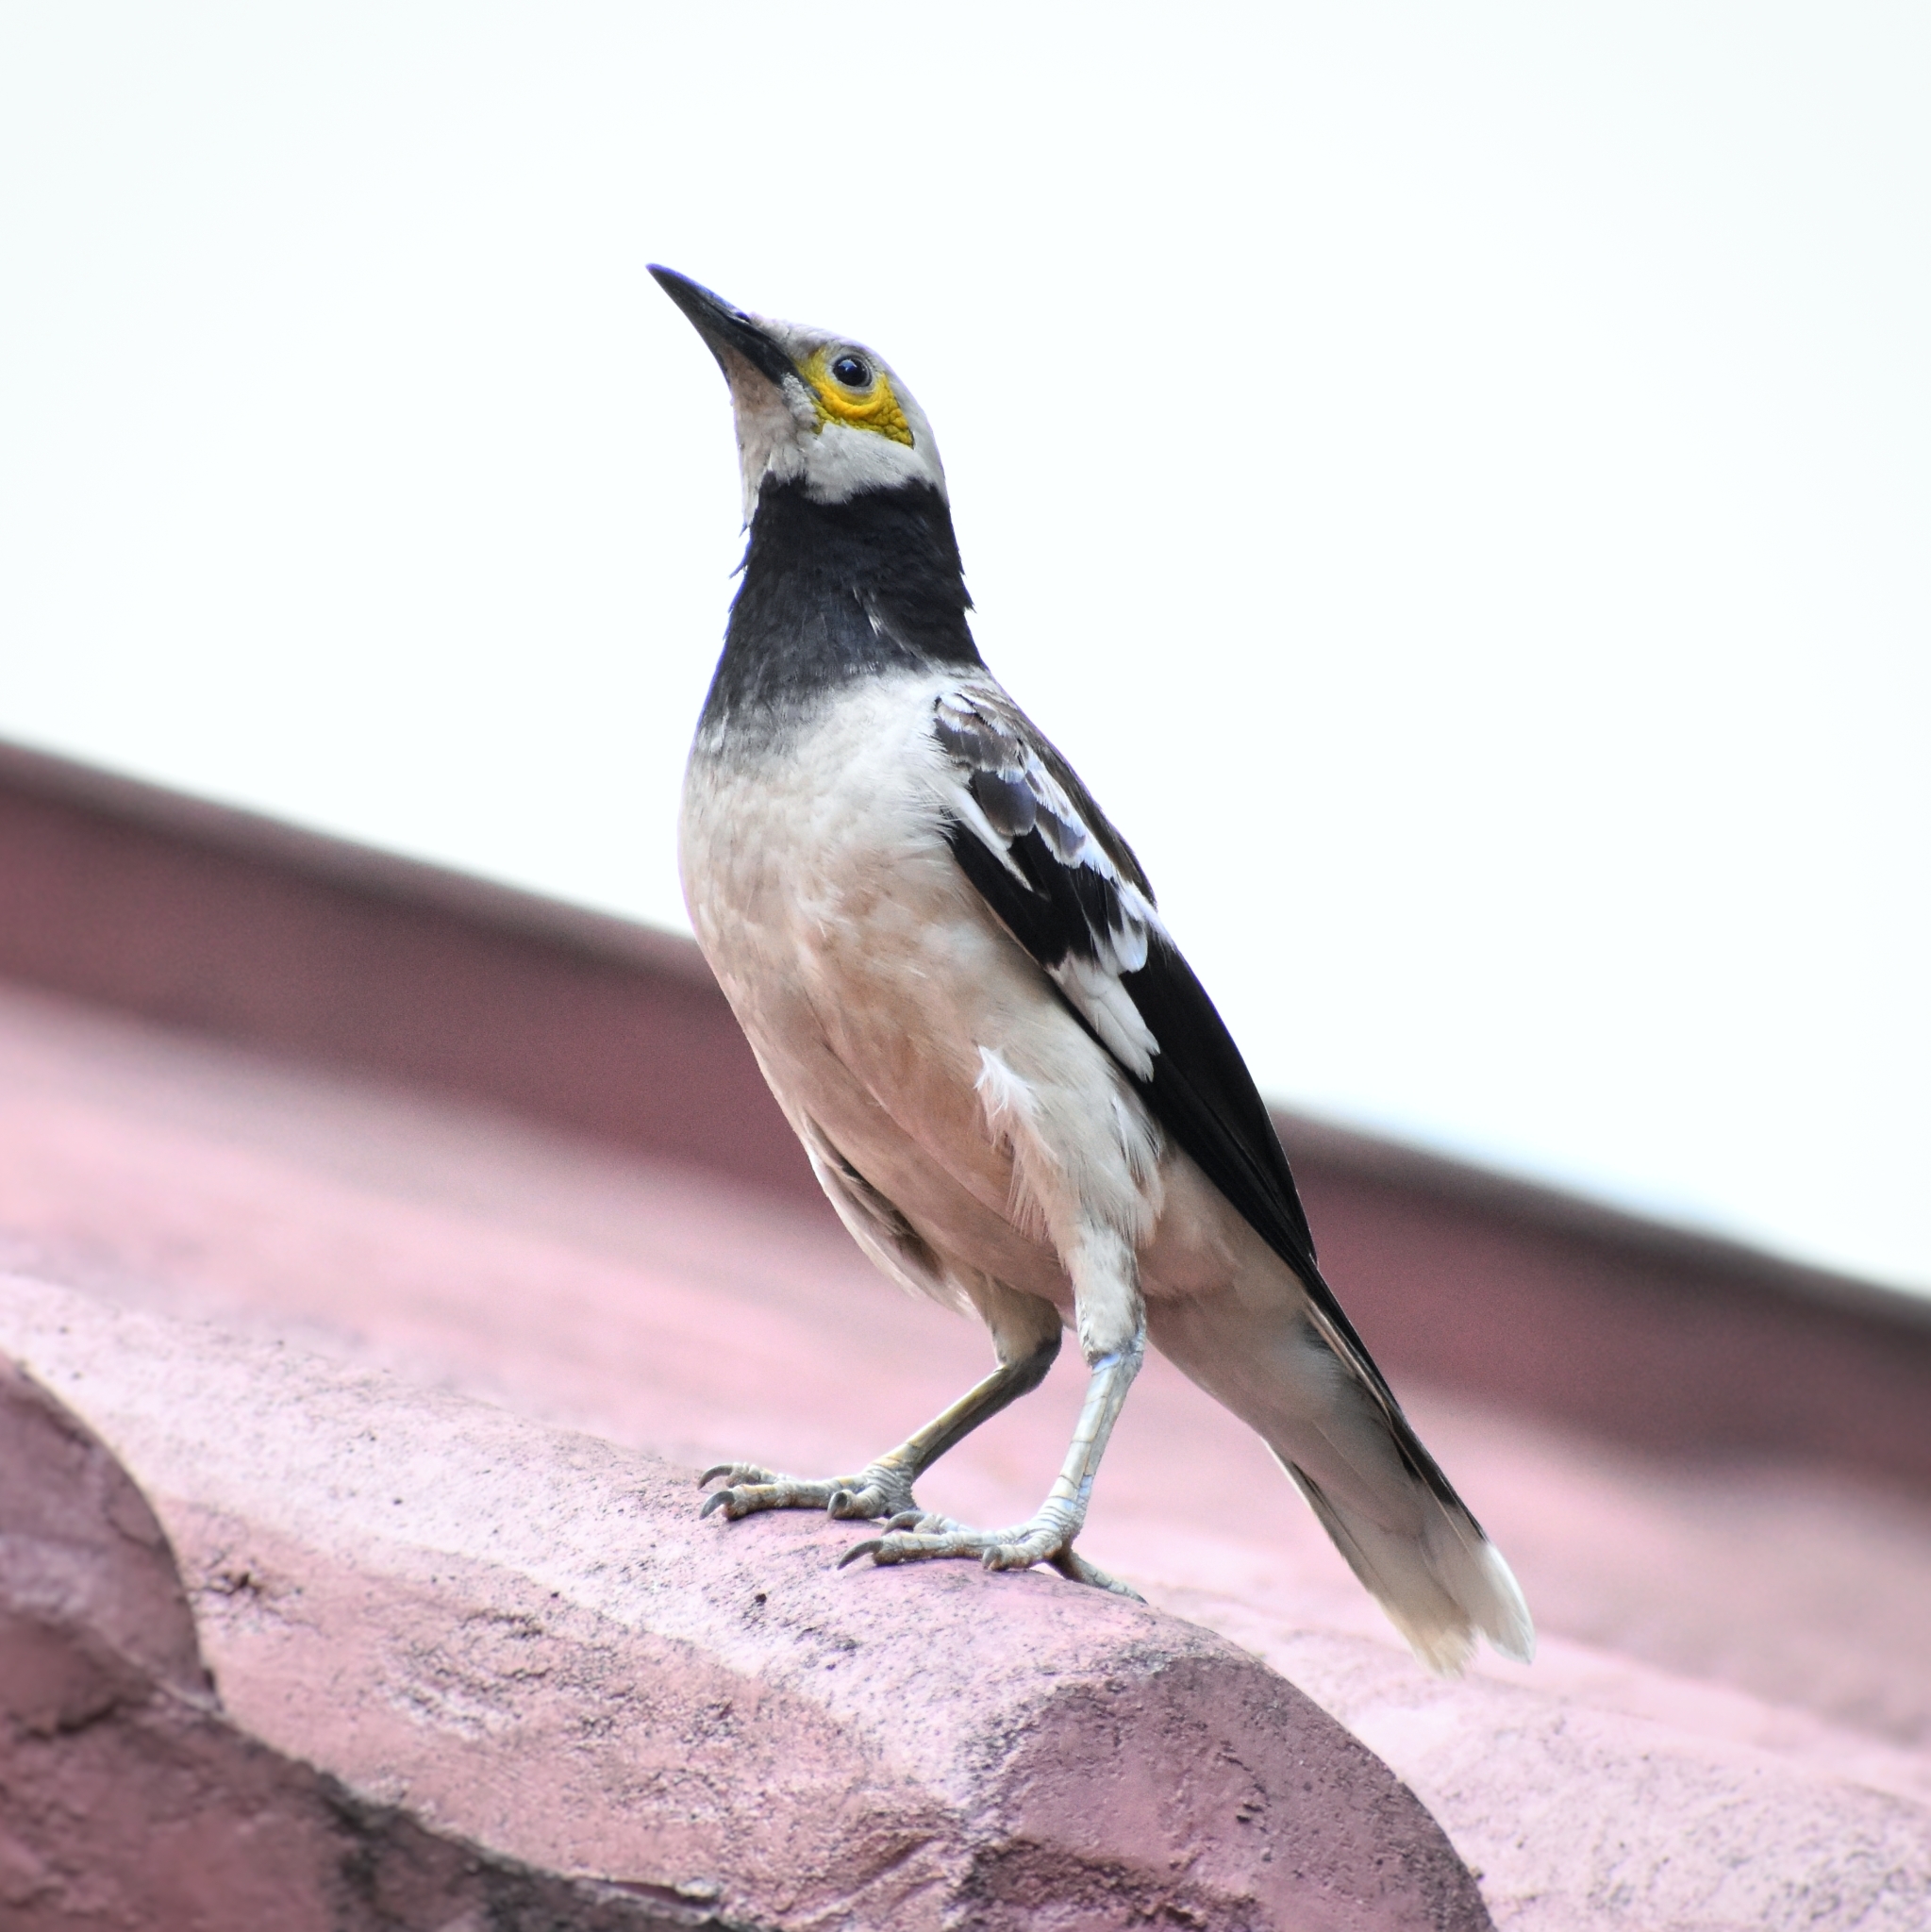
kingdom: Animalia
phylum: Chordata
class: Aves
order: Passeriformes
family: Sturnidae
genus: Gracupica
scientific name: Gracupica nigricollis
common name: Black-collared starling
